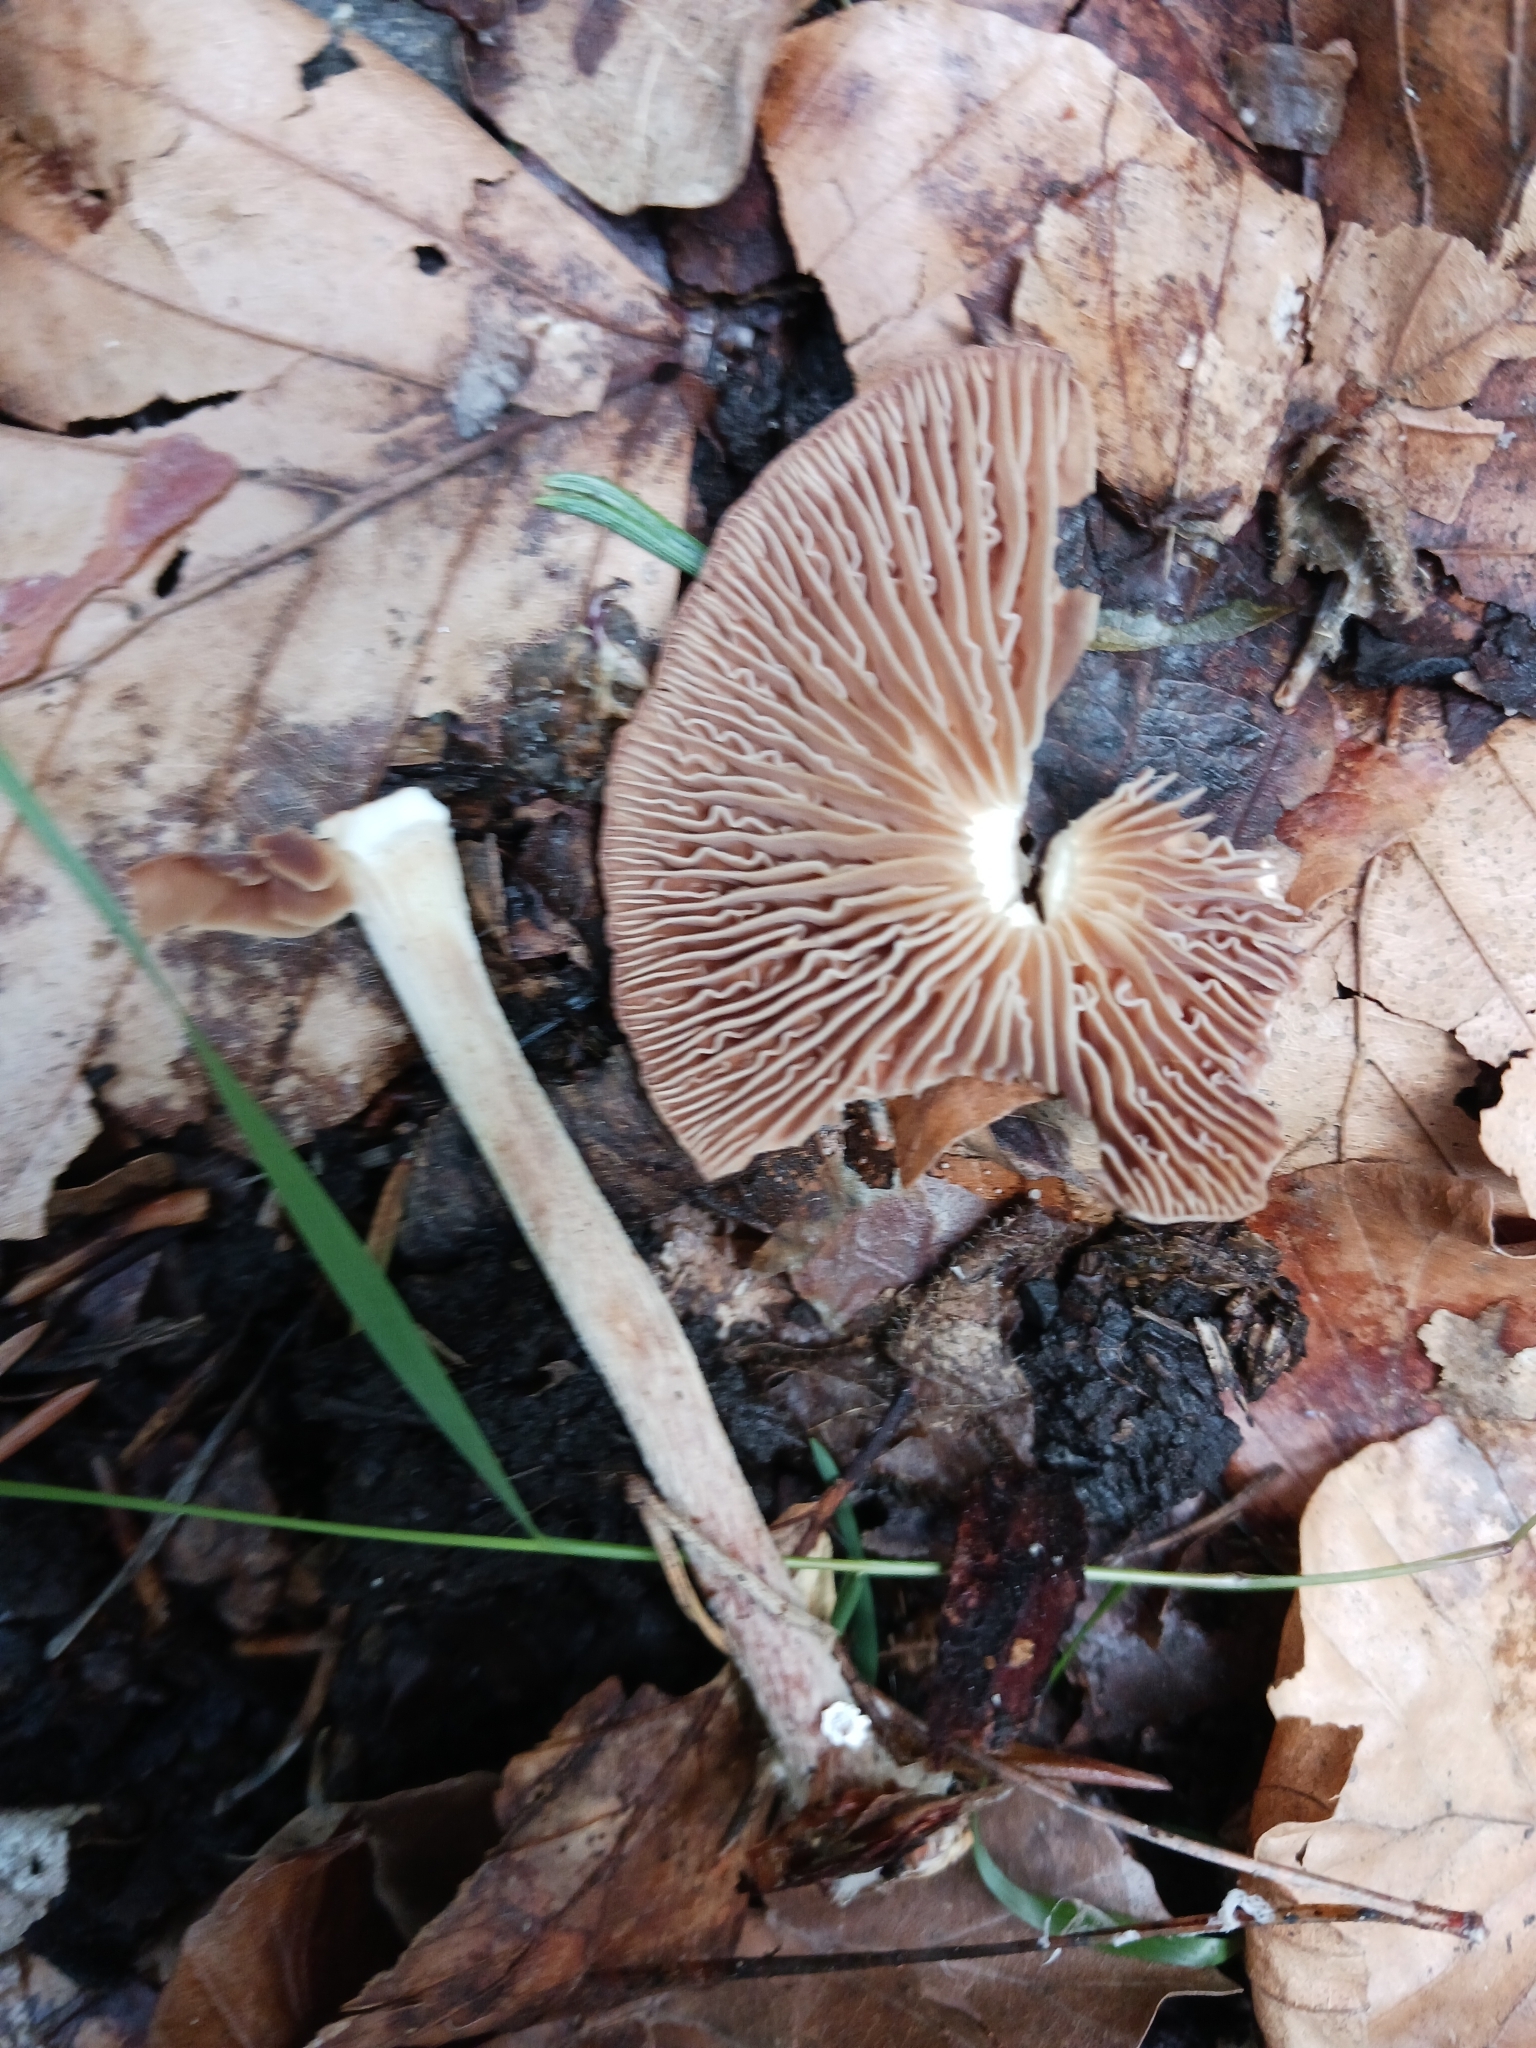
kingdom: Fungi
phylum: Basidiomycota
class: Agaricomycetes
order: Agaricales
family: Omphalotaceae
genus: Collybiopsis
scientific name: Collybiopsis peronata
